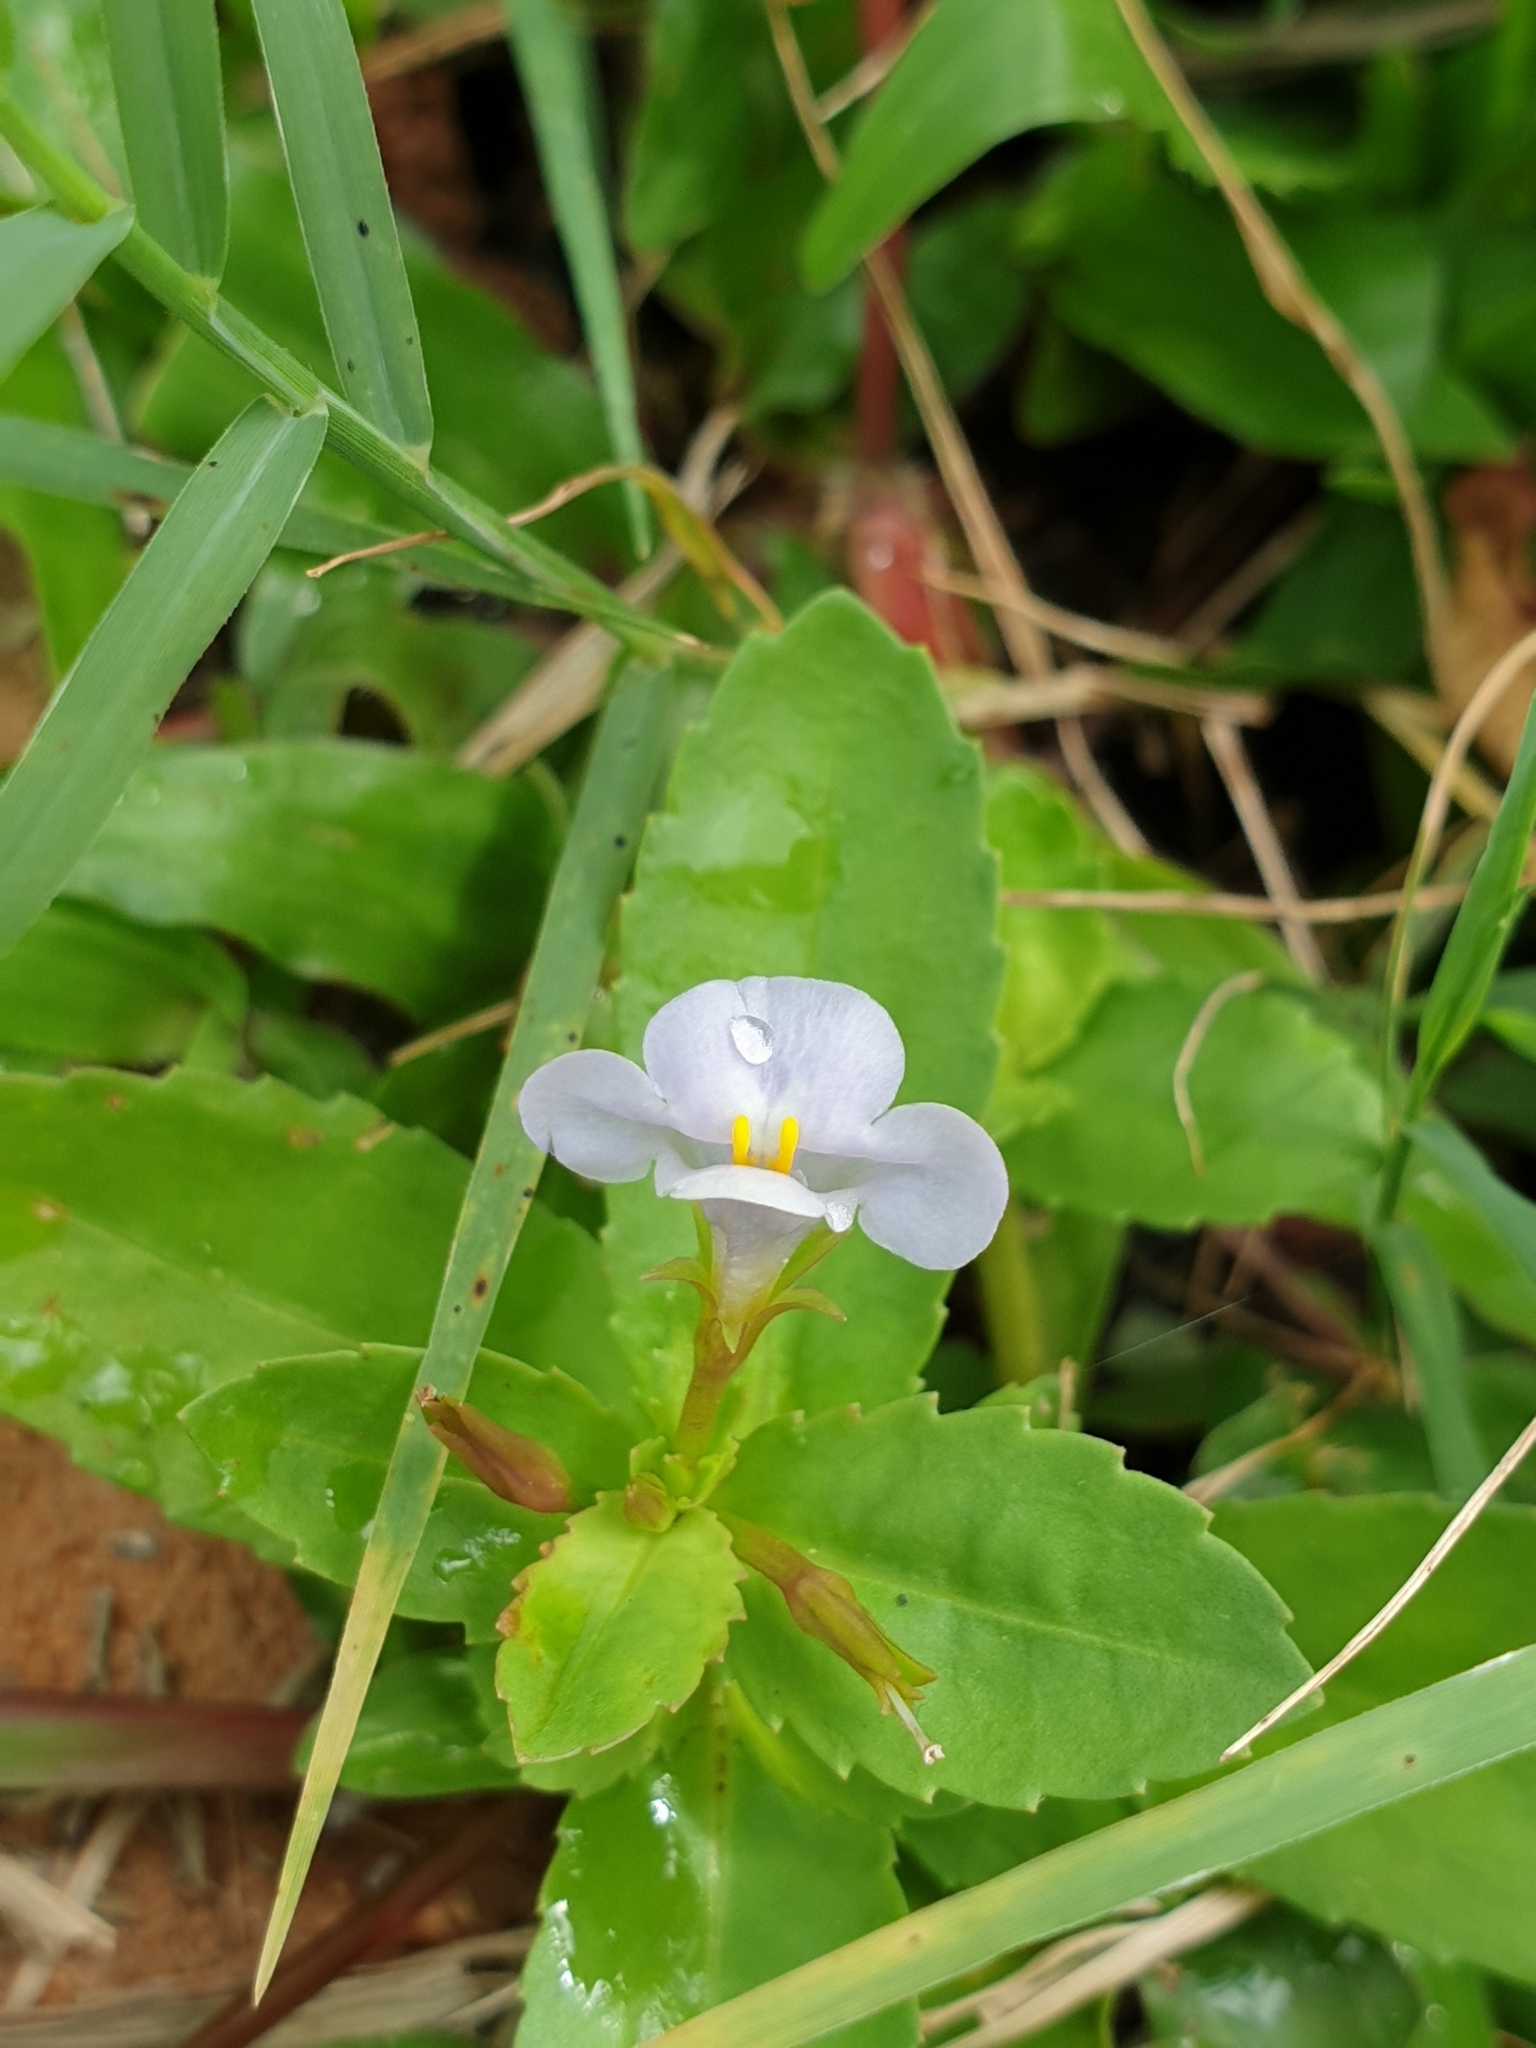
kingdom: Plantae
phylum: Tracheophyta
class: Magnoliopsida
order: Lamiales
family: Linderniaceae
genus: Bonnaya
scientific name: Bonnaya antipoda
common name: Sparrow false pimpernel
